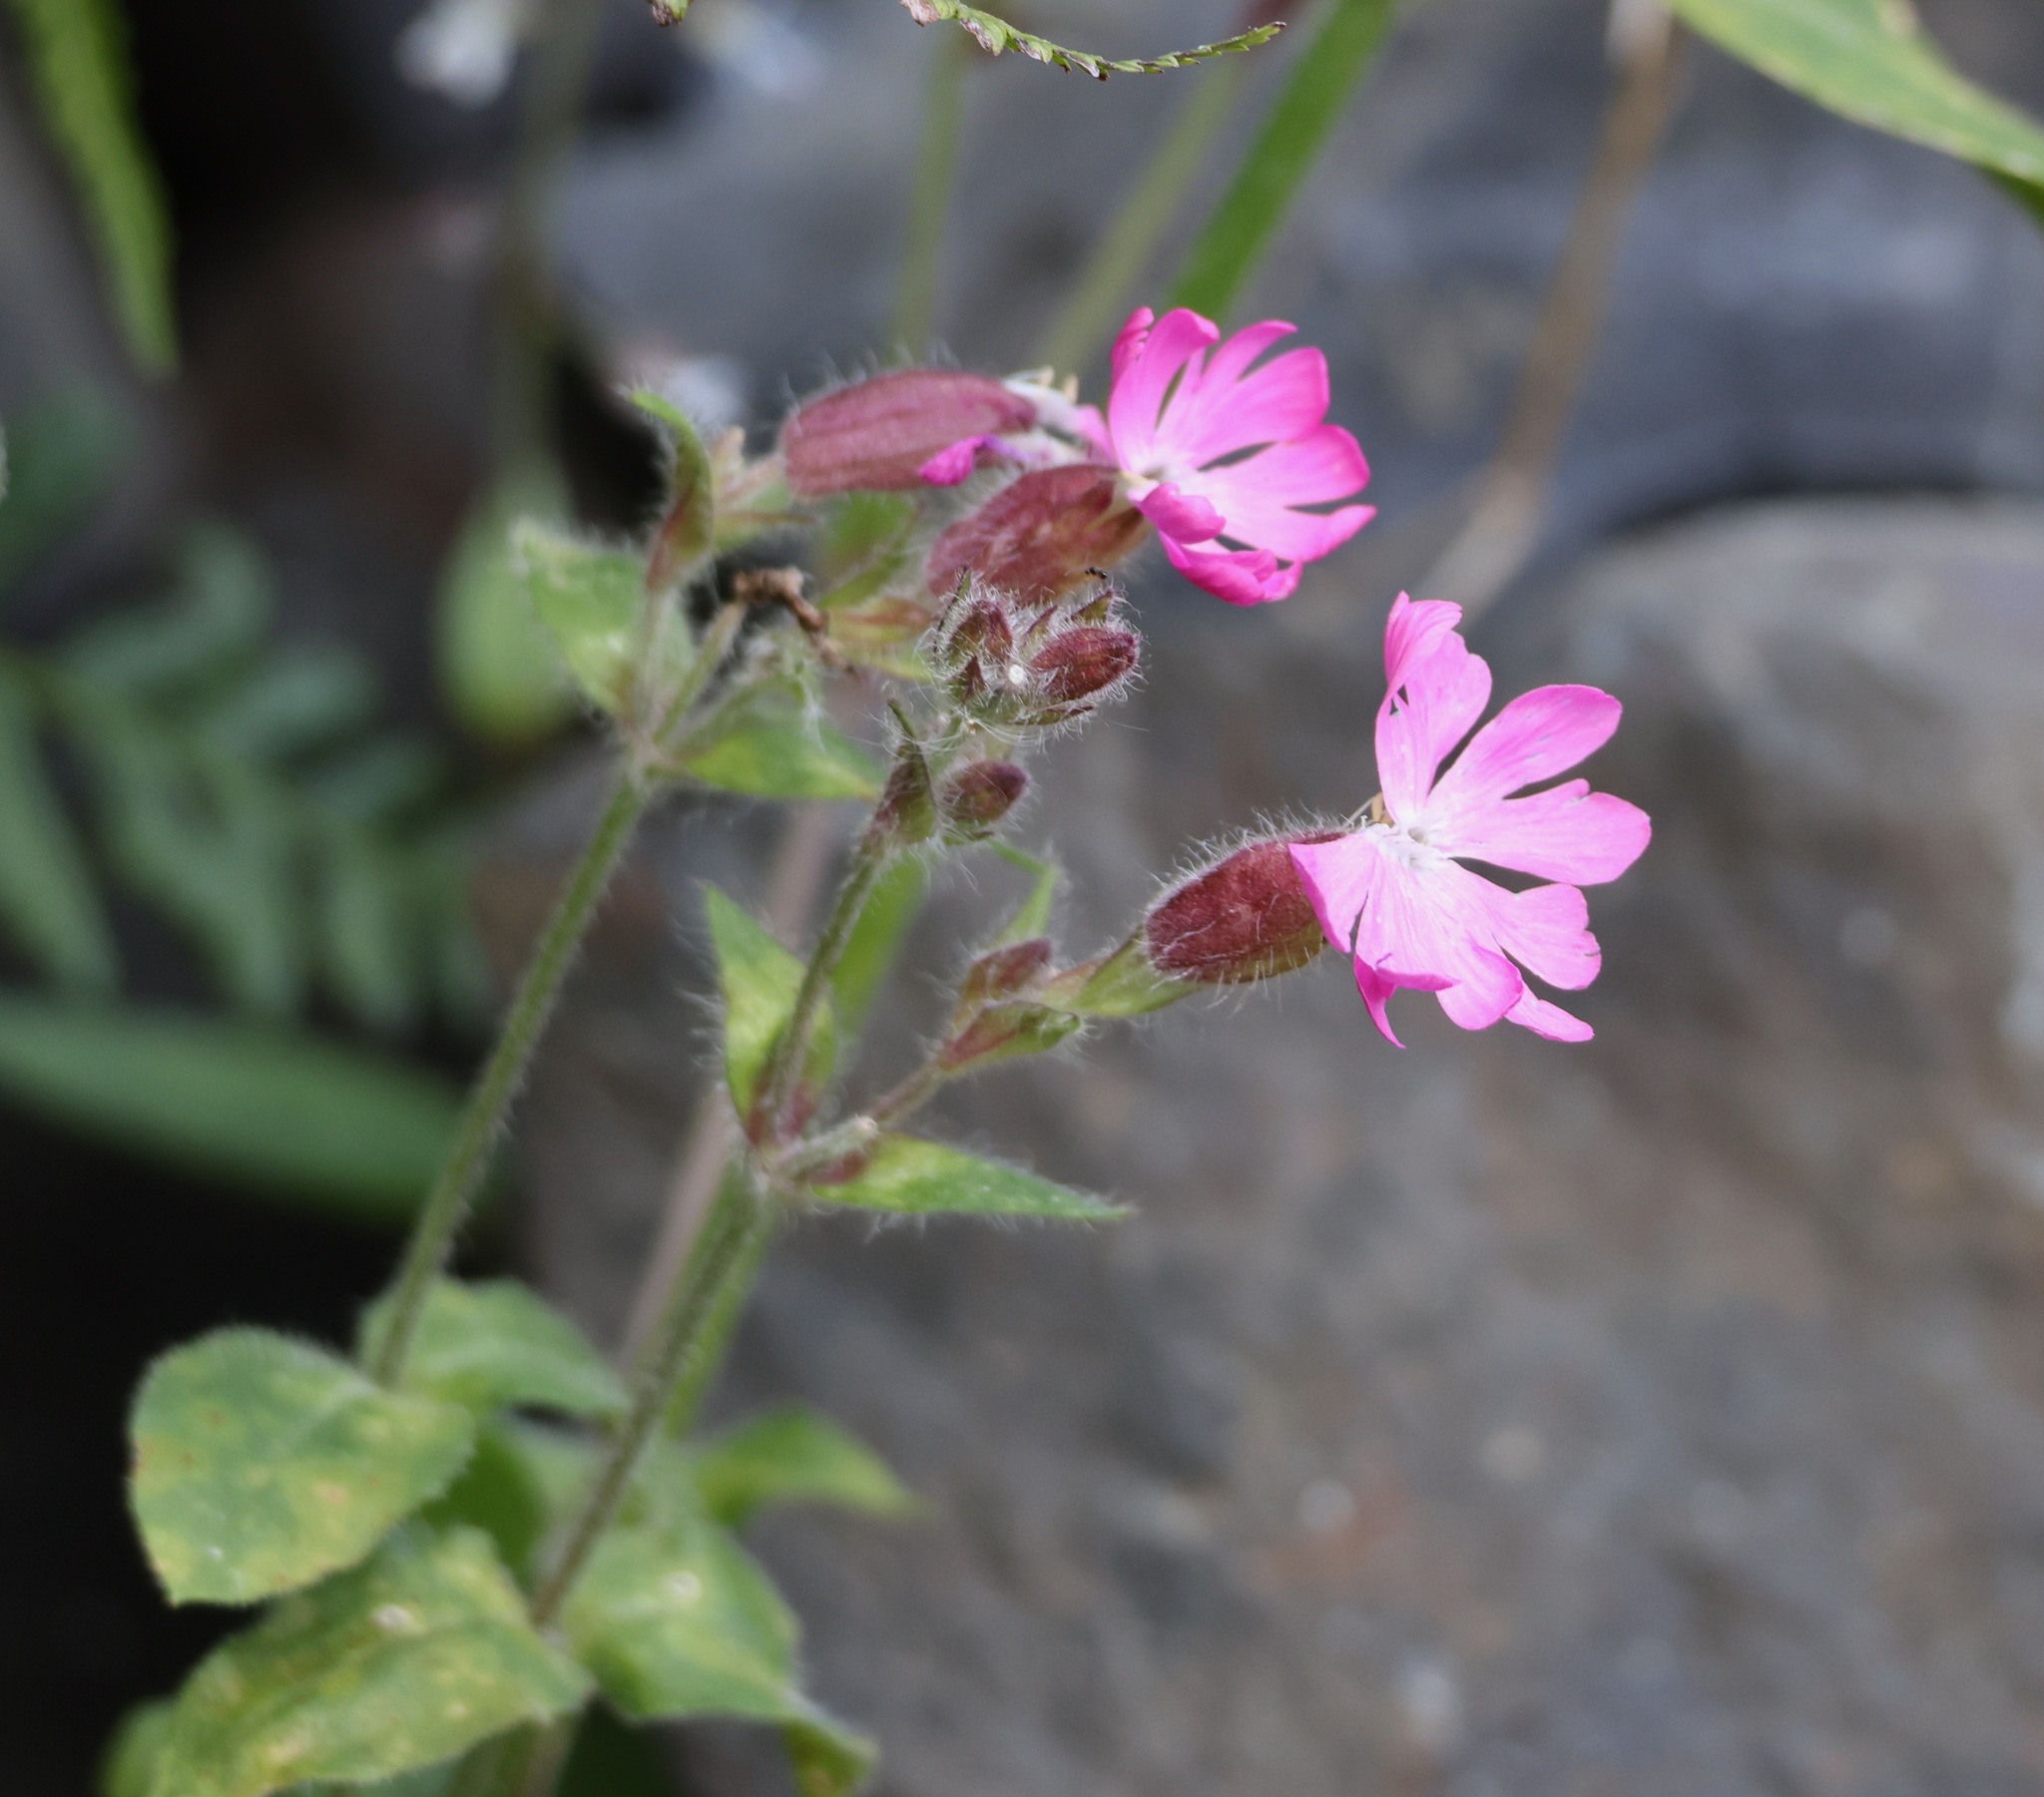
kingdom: Plantae
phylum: Tracheophyta
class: Magnoliopsida
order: Caryophyllales
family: Caryophyllaceae
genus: Silene
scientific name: Silene dioica
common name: Red campion
